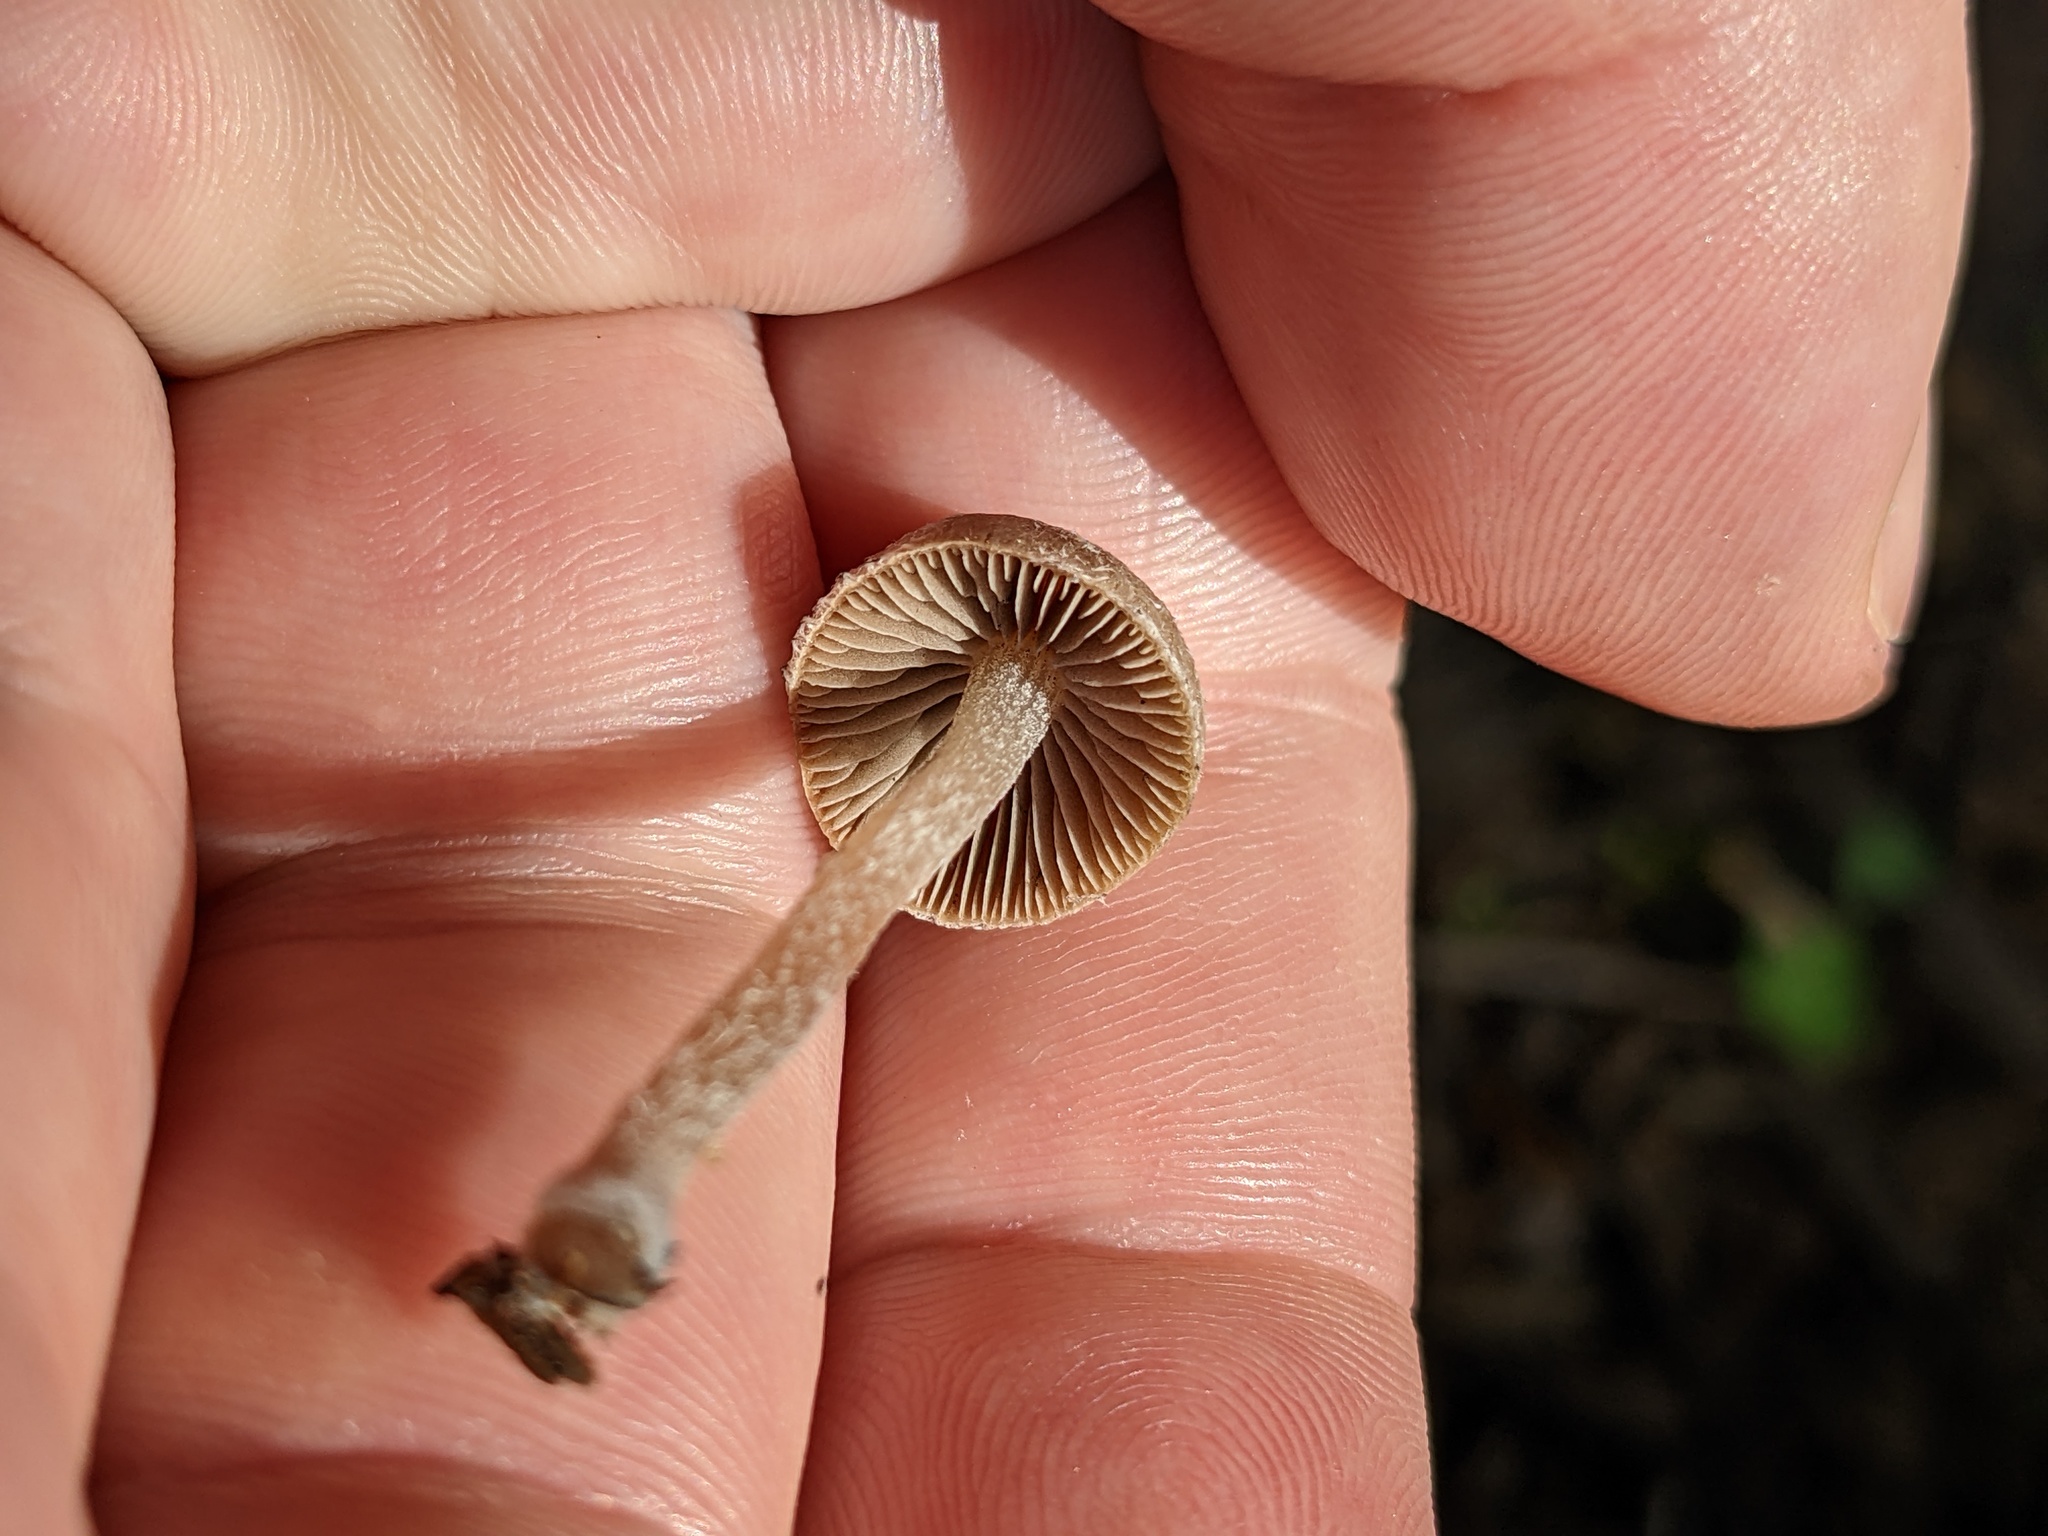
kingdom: Fungi
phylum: Basidiomycota
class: Agaricomycetes
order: Agaricales
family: Psathyrellaceae
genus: Coprinopsis
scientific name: Coprinopsis canoceps
